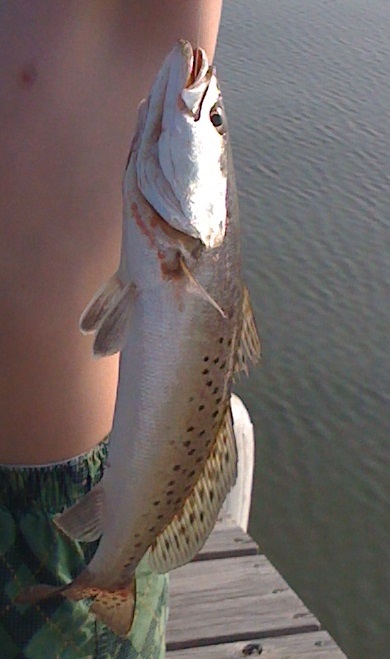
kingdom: Animalia
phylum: Chordata
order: Perciformes
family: Sciaenidae
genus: Cynoscion
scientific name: Cynoscion nebulosus
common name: Spotted seatrout
